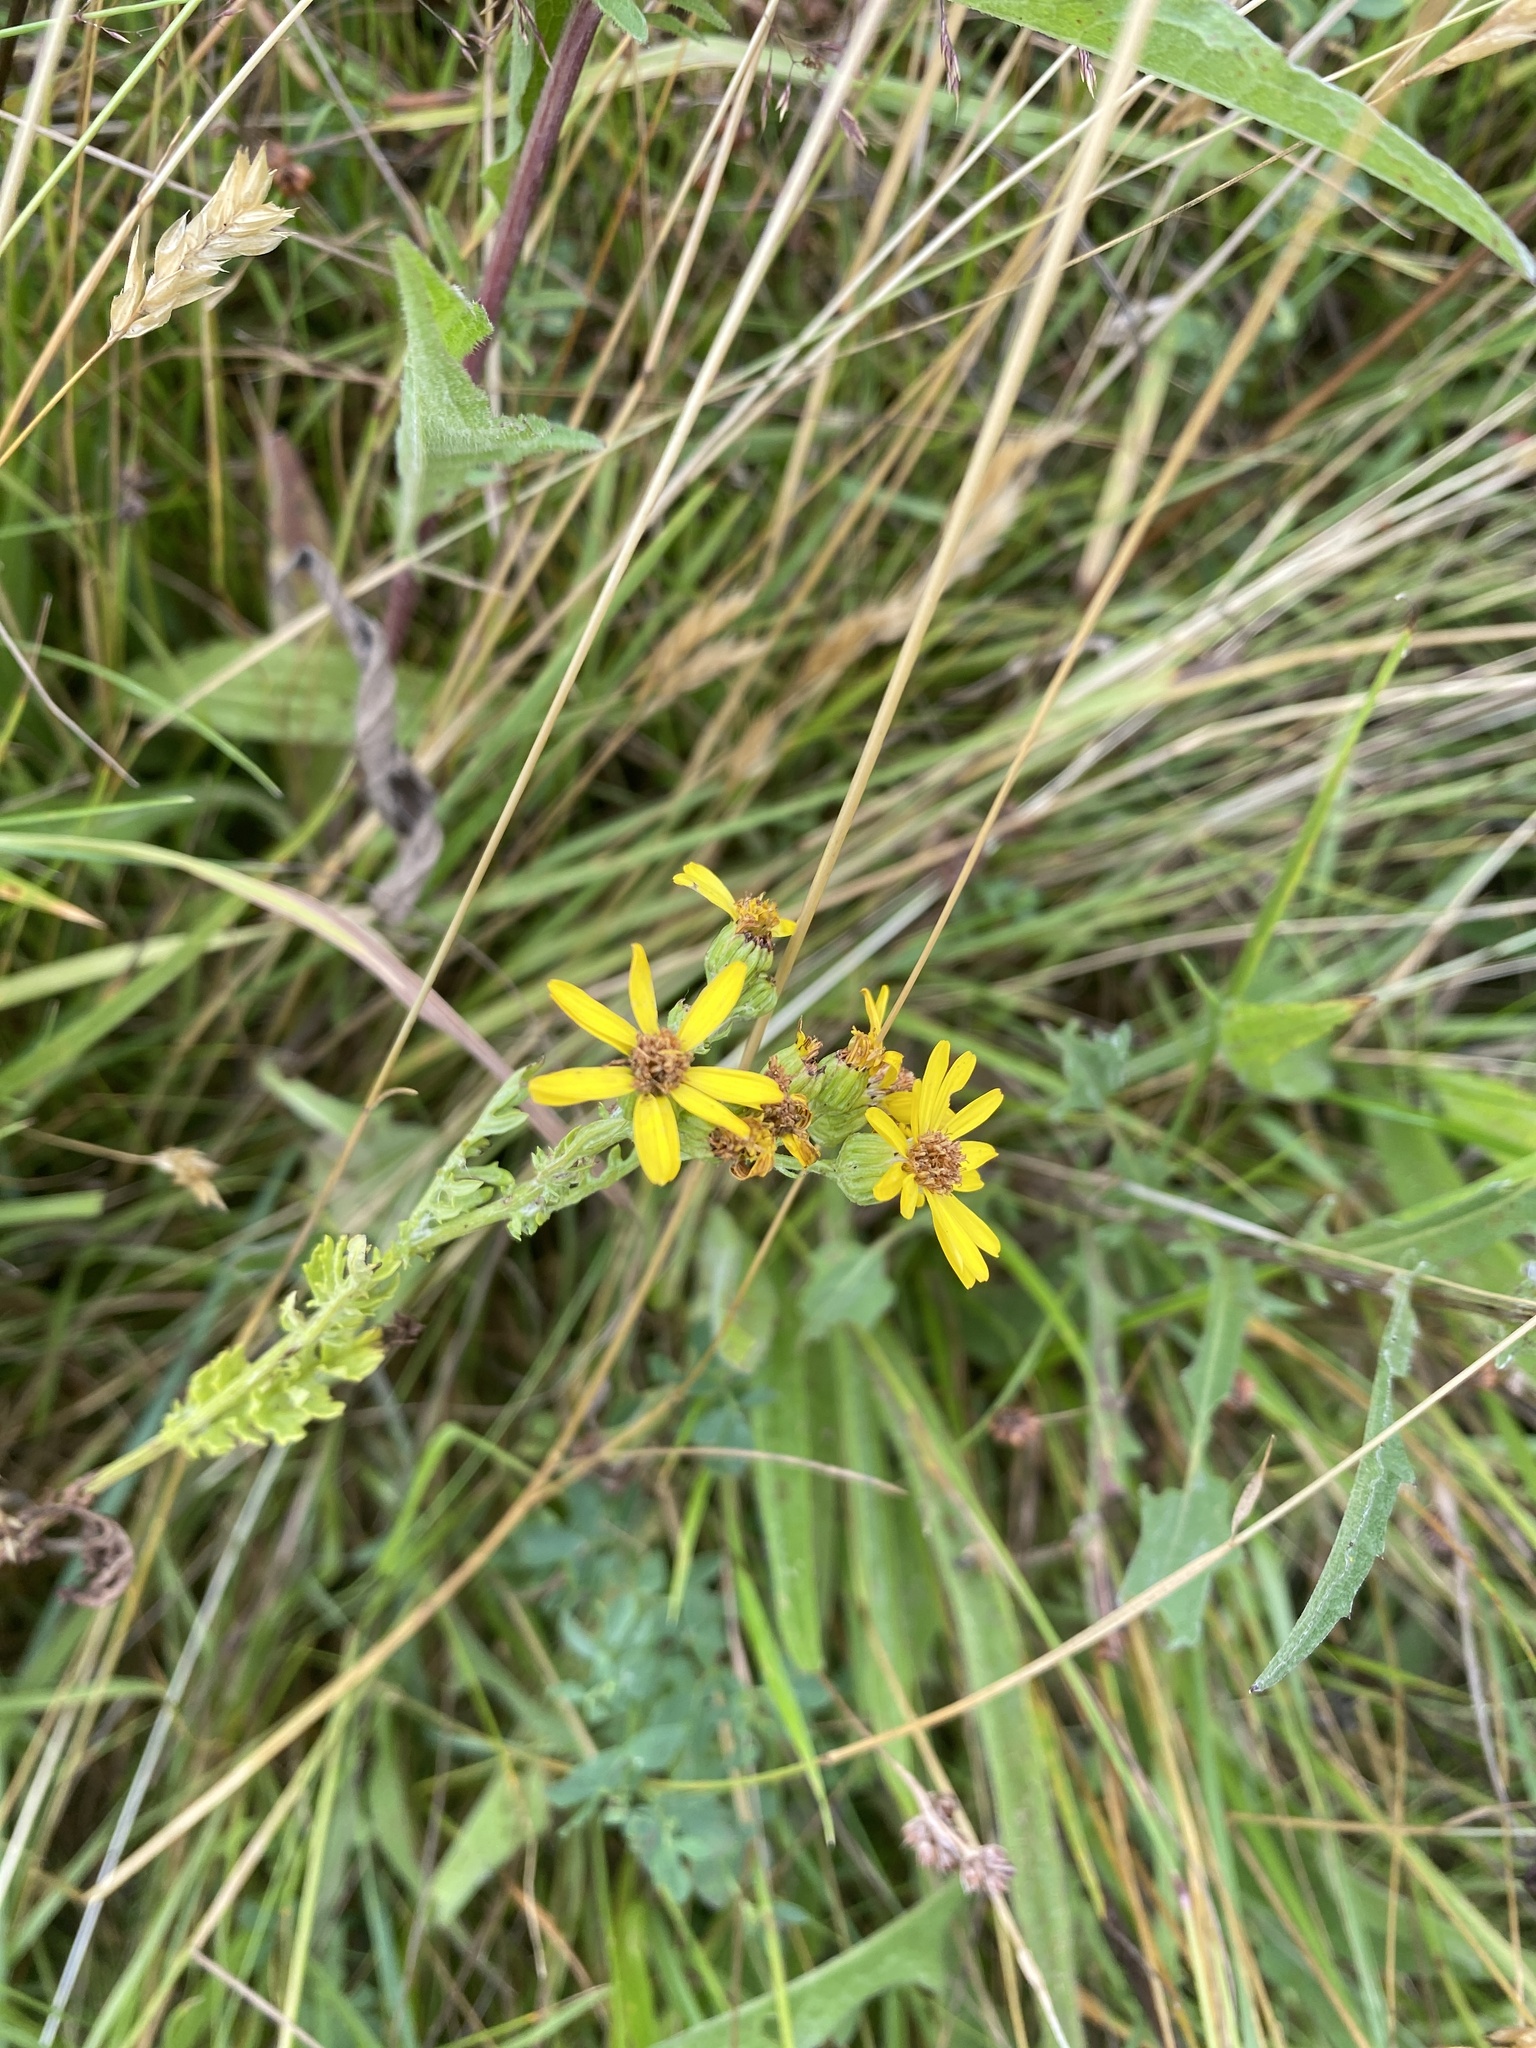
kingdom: Plantae
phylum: Tracheophyta
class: Magnoliopsida
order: Asterales
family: Asteraceae
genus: Jacobaea
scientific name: Jacobaea vulgaris
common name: Stinking willie
